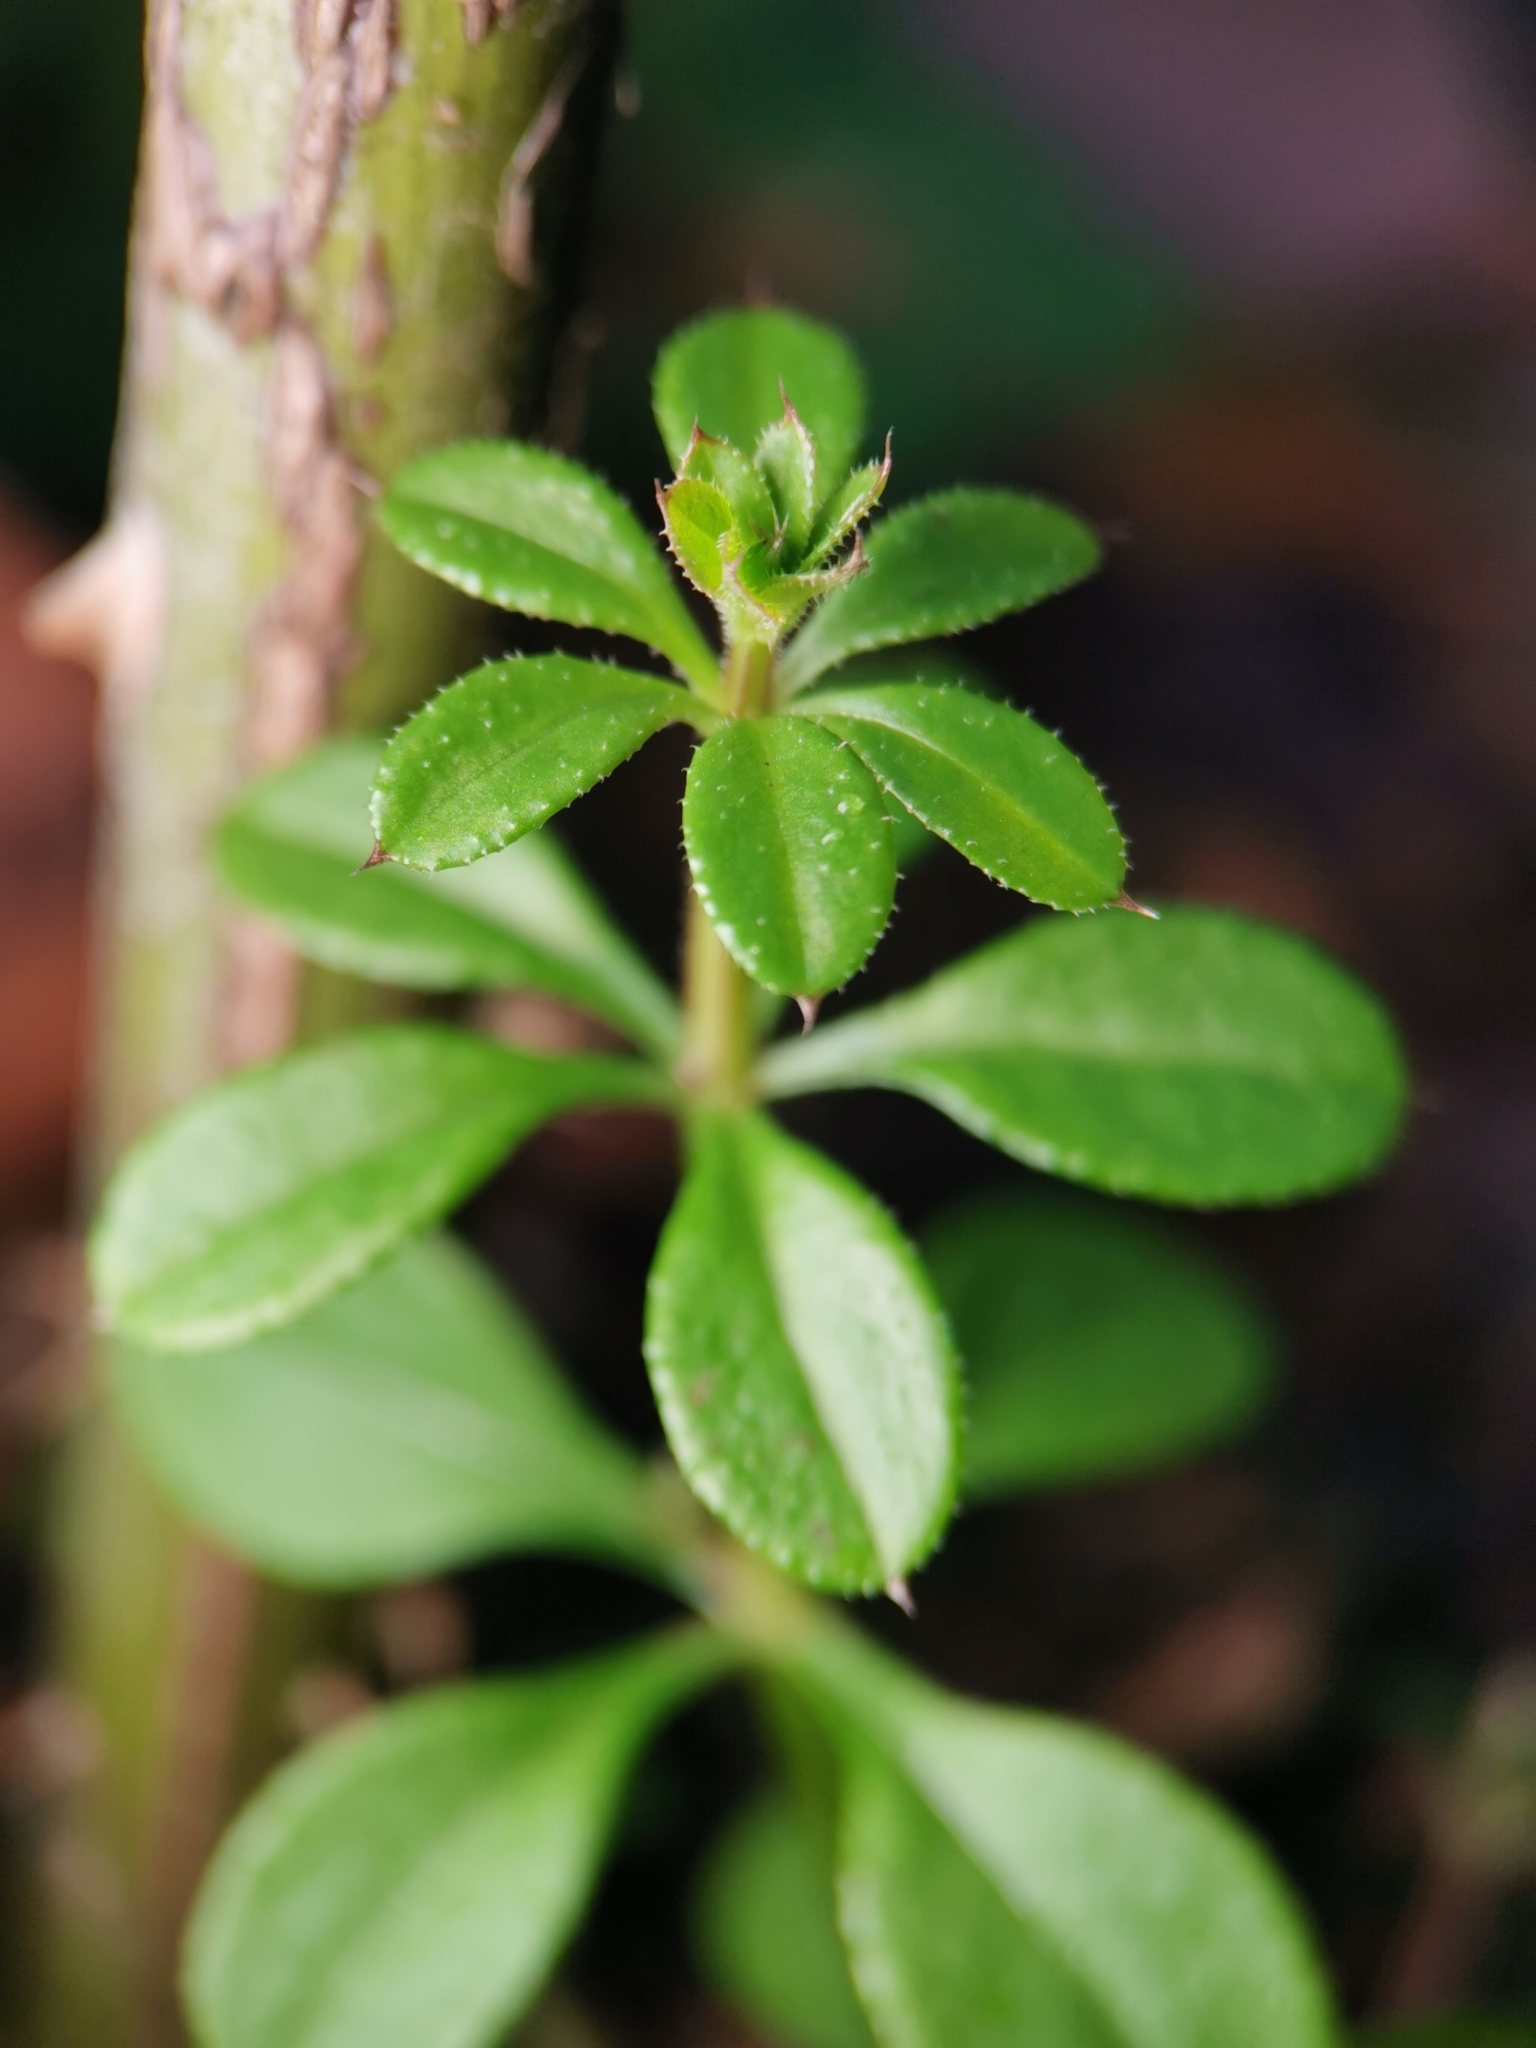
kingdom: Plantae
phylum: Tracheophyta
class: Magnoliopsida
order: Gentianales
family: Rubiaceae
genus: Galium
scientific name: Galium aparine
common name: Cleavers
